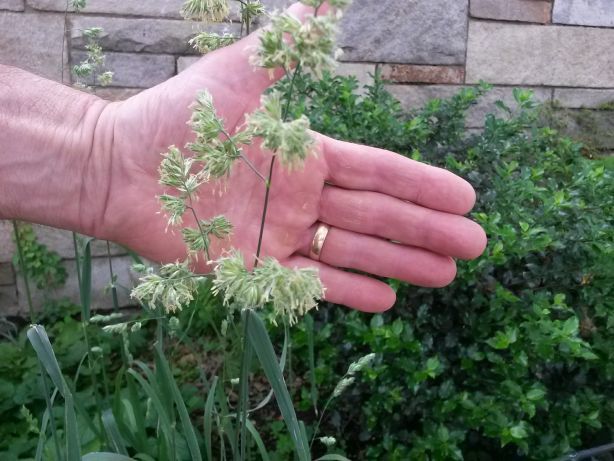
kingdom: Plantae
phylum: Tracheophyta
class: Liliopsida
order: Poales
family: Poaceae
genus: Dactylis
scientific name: Dactylis glomerata
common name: Orchardgrass
